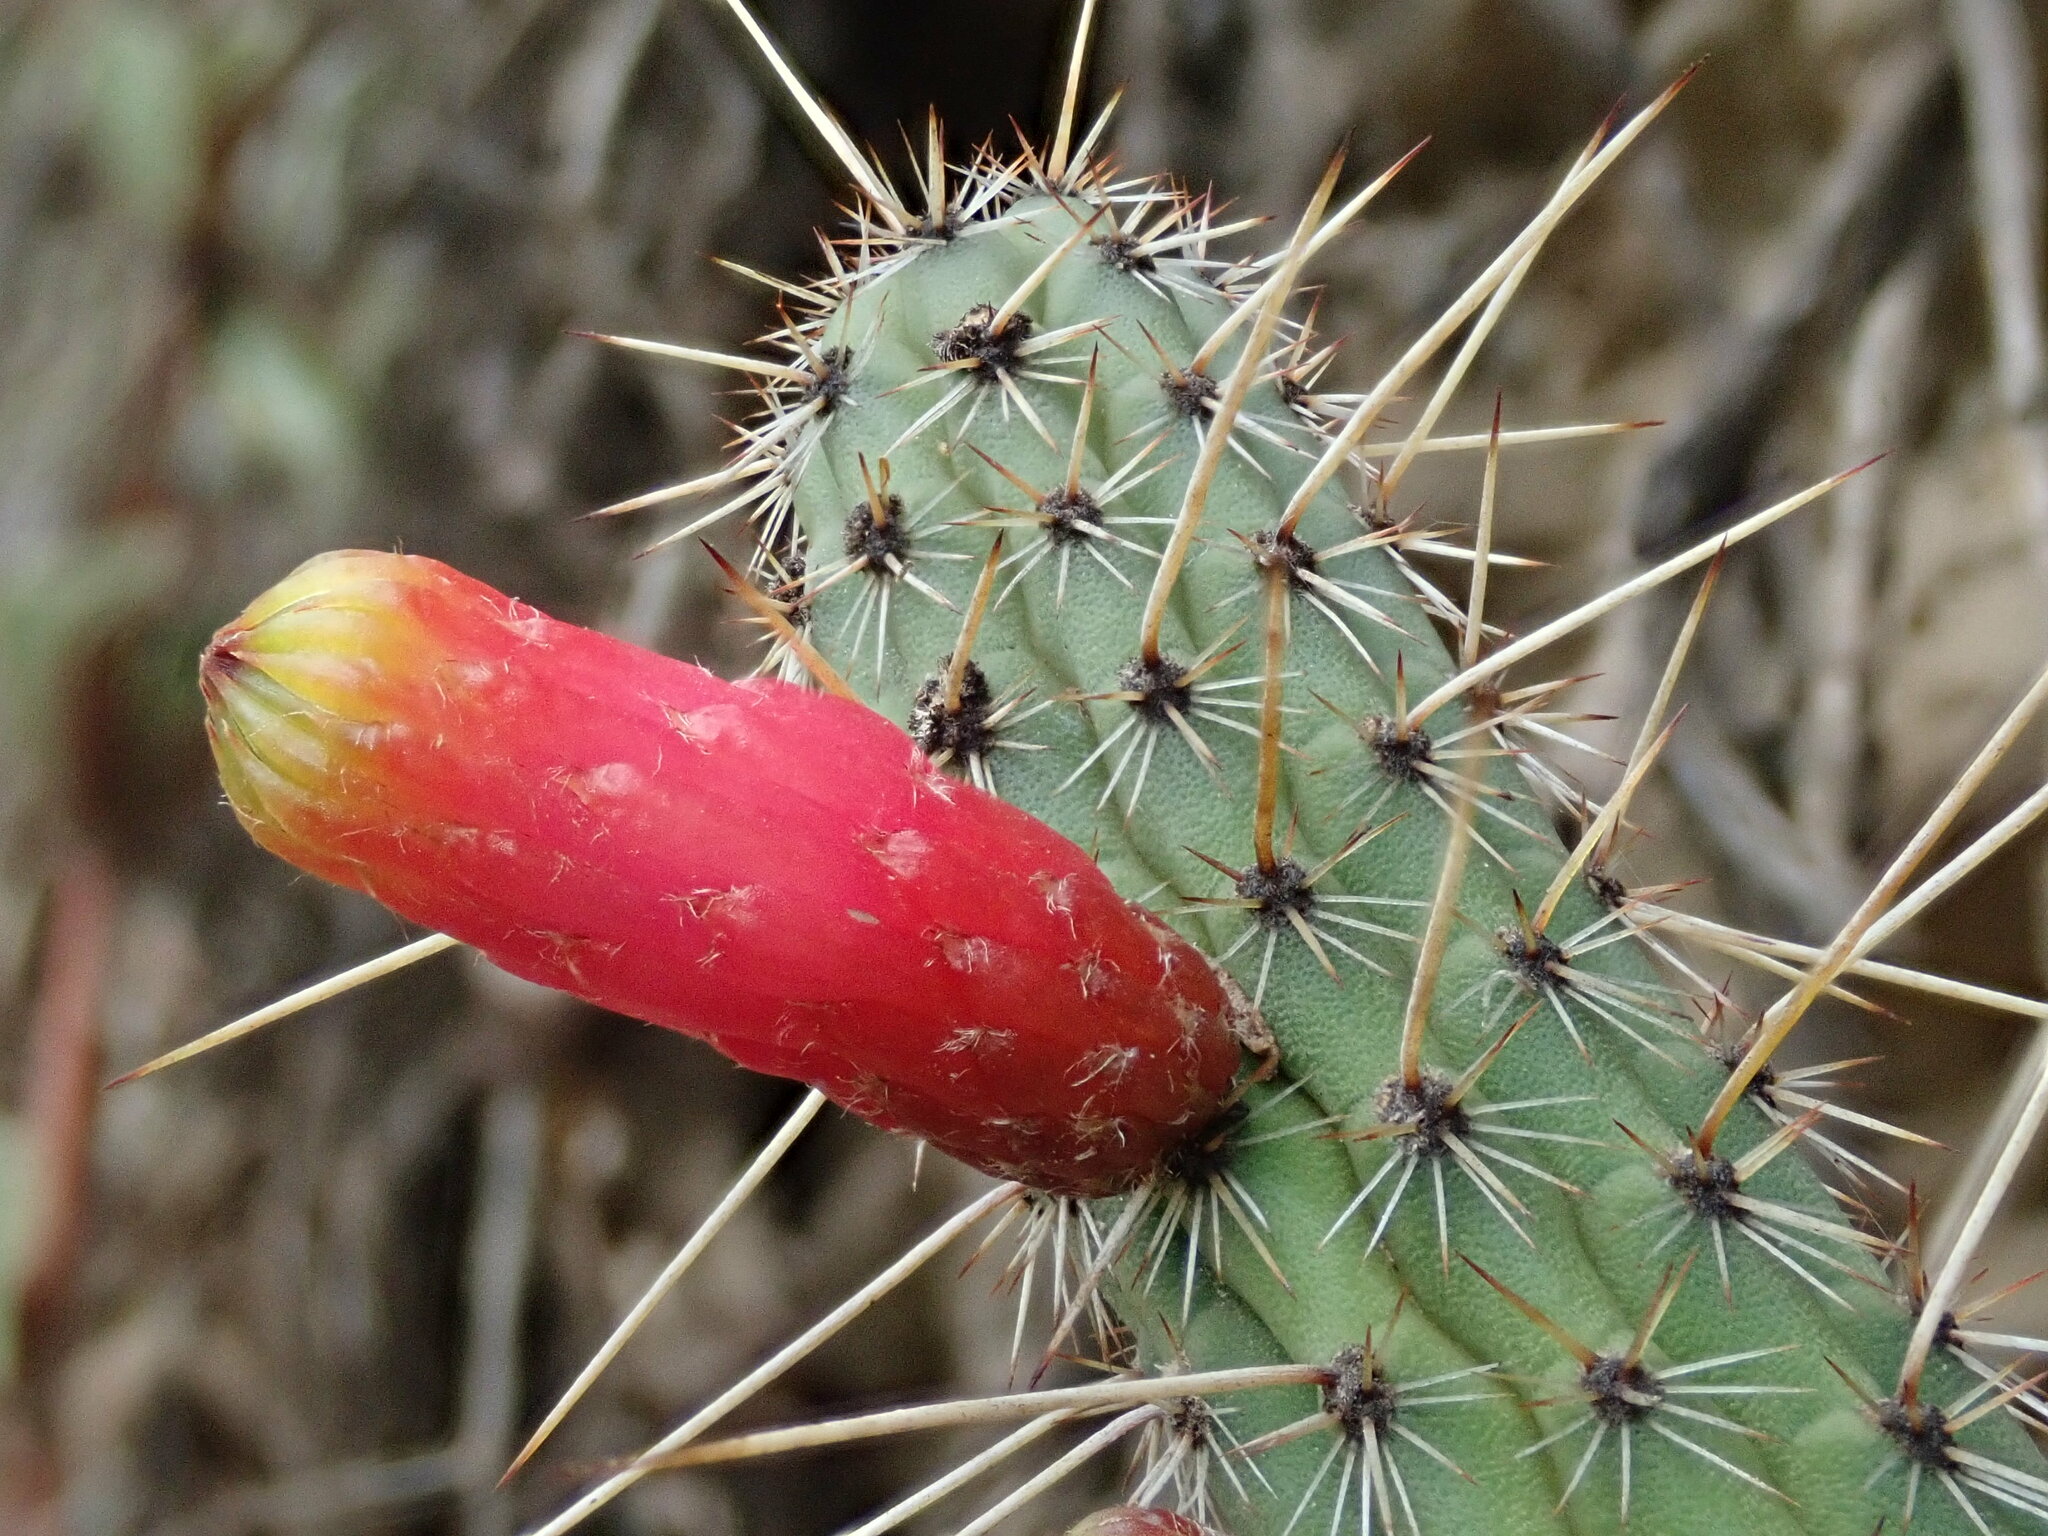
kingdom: Plantae
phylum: Tracheophyta
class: Magnoliopsida
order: Caryophyllales
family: Cactaceae
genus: Cleistocactus
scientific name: Cleistocactus candelilla
